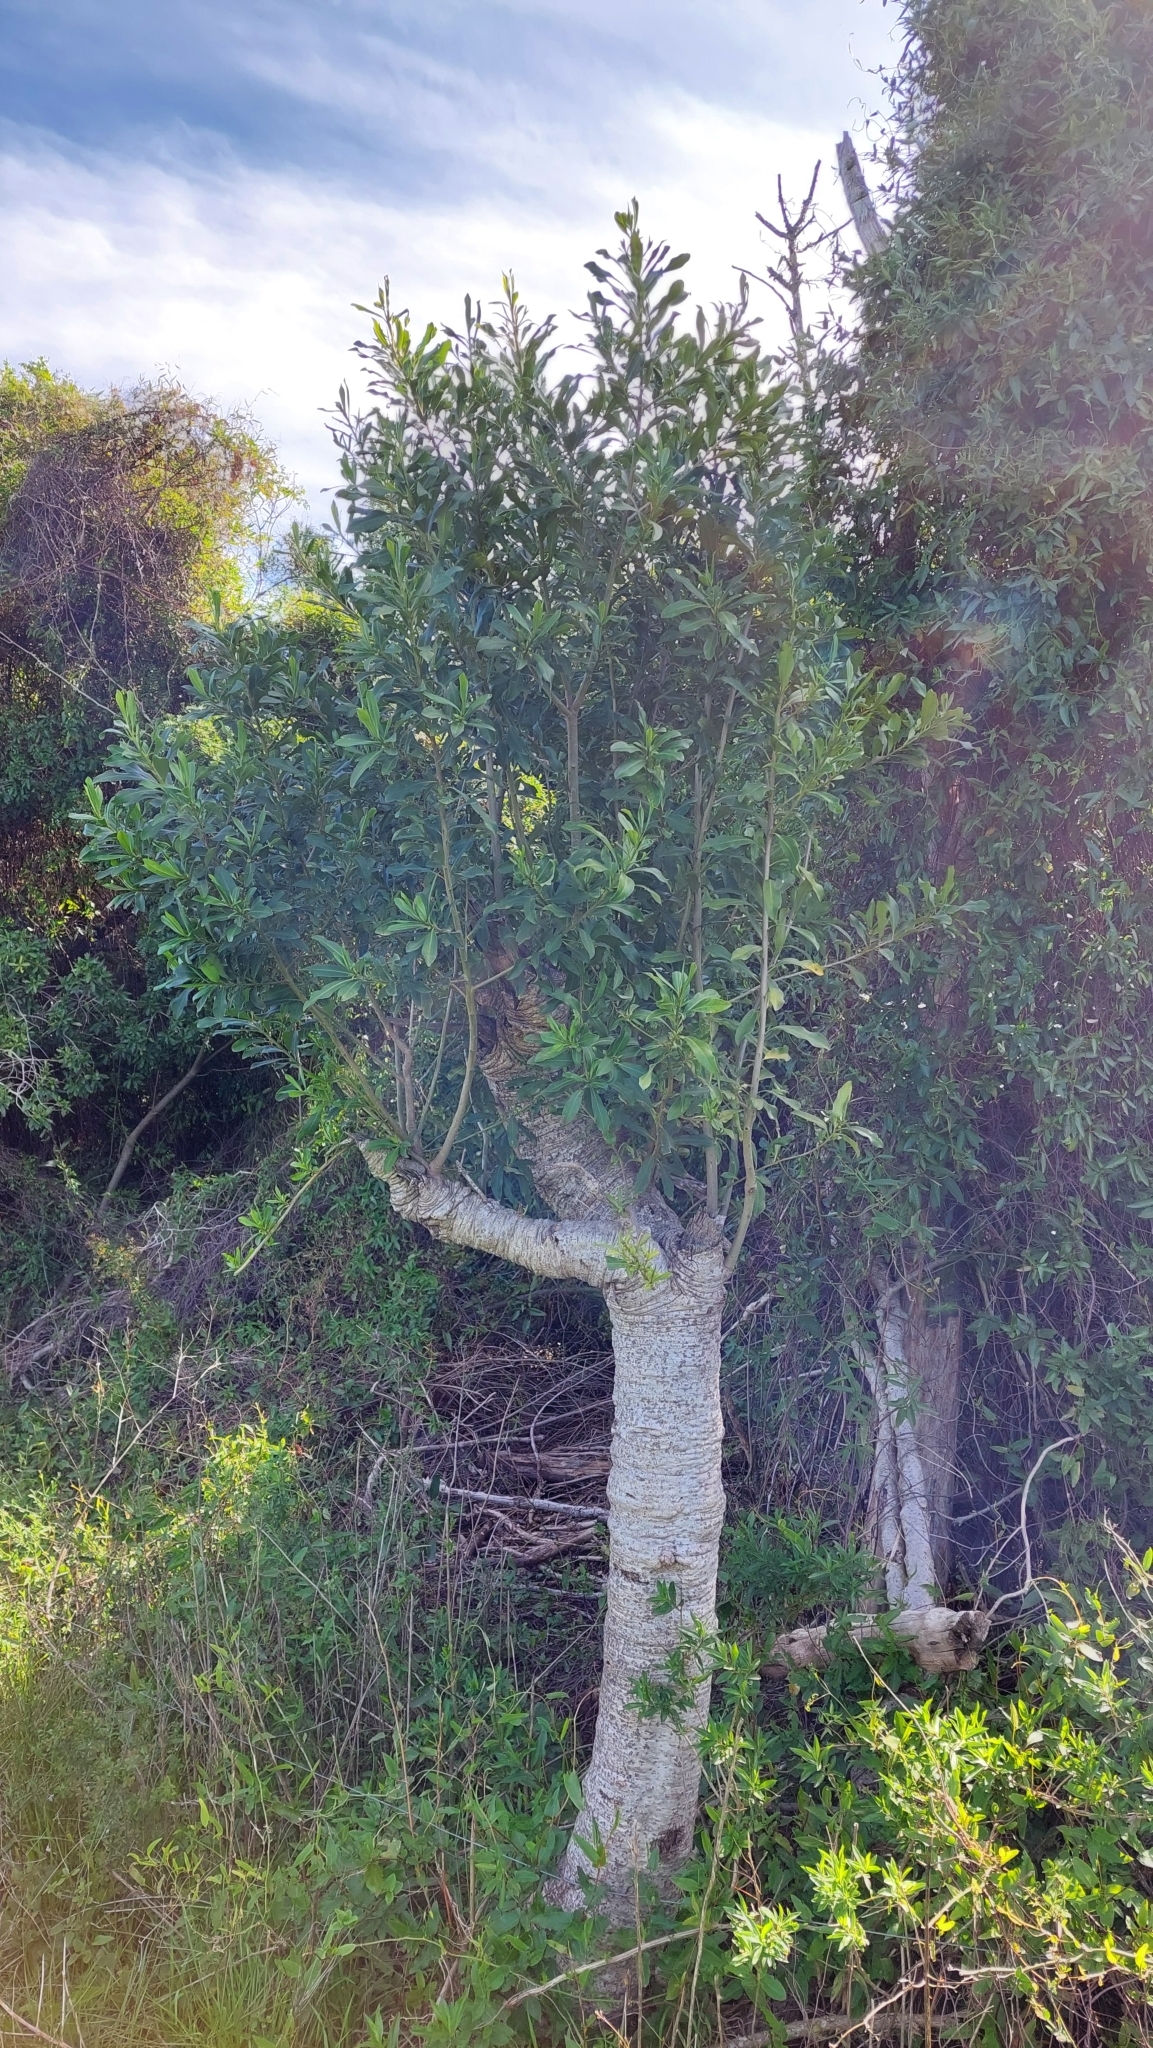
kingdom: Plantae
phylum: Tracheophyta
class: Magnoliopsida
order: Ericales
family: Primulaceae
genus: Myrsine
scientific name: Myrsine laetevirens
